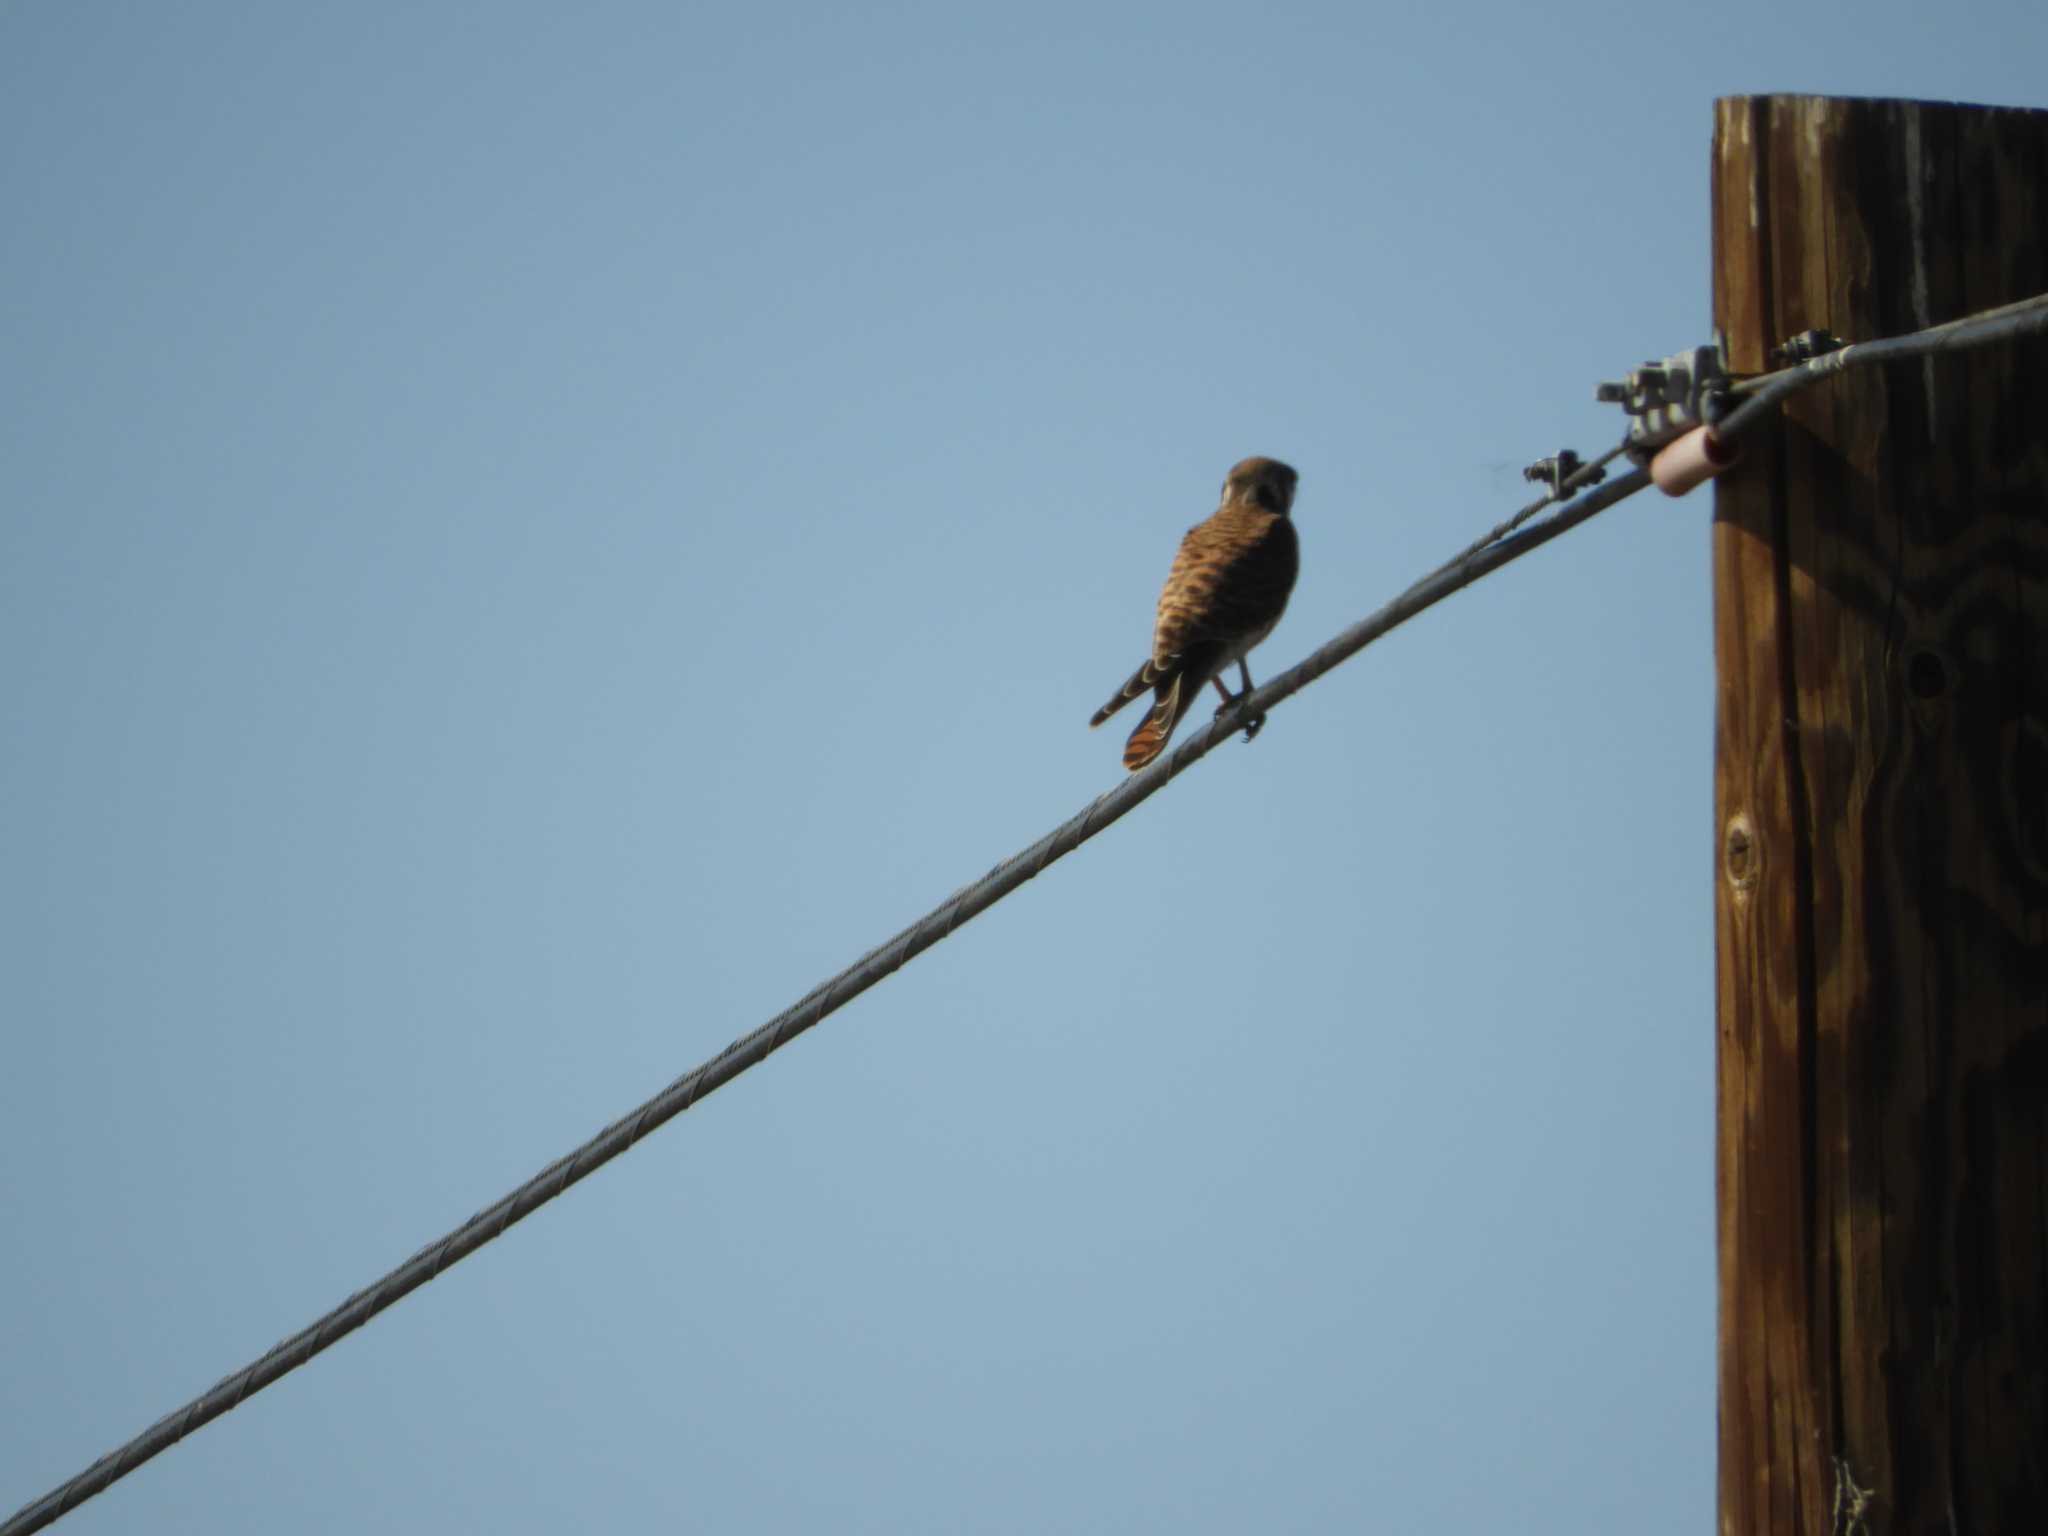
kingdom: Animalia
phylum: Chordata
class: Aves
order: Falconiformes
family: Falconidae
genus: Falco
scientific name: Falco sparverius
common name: American kestrel
